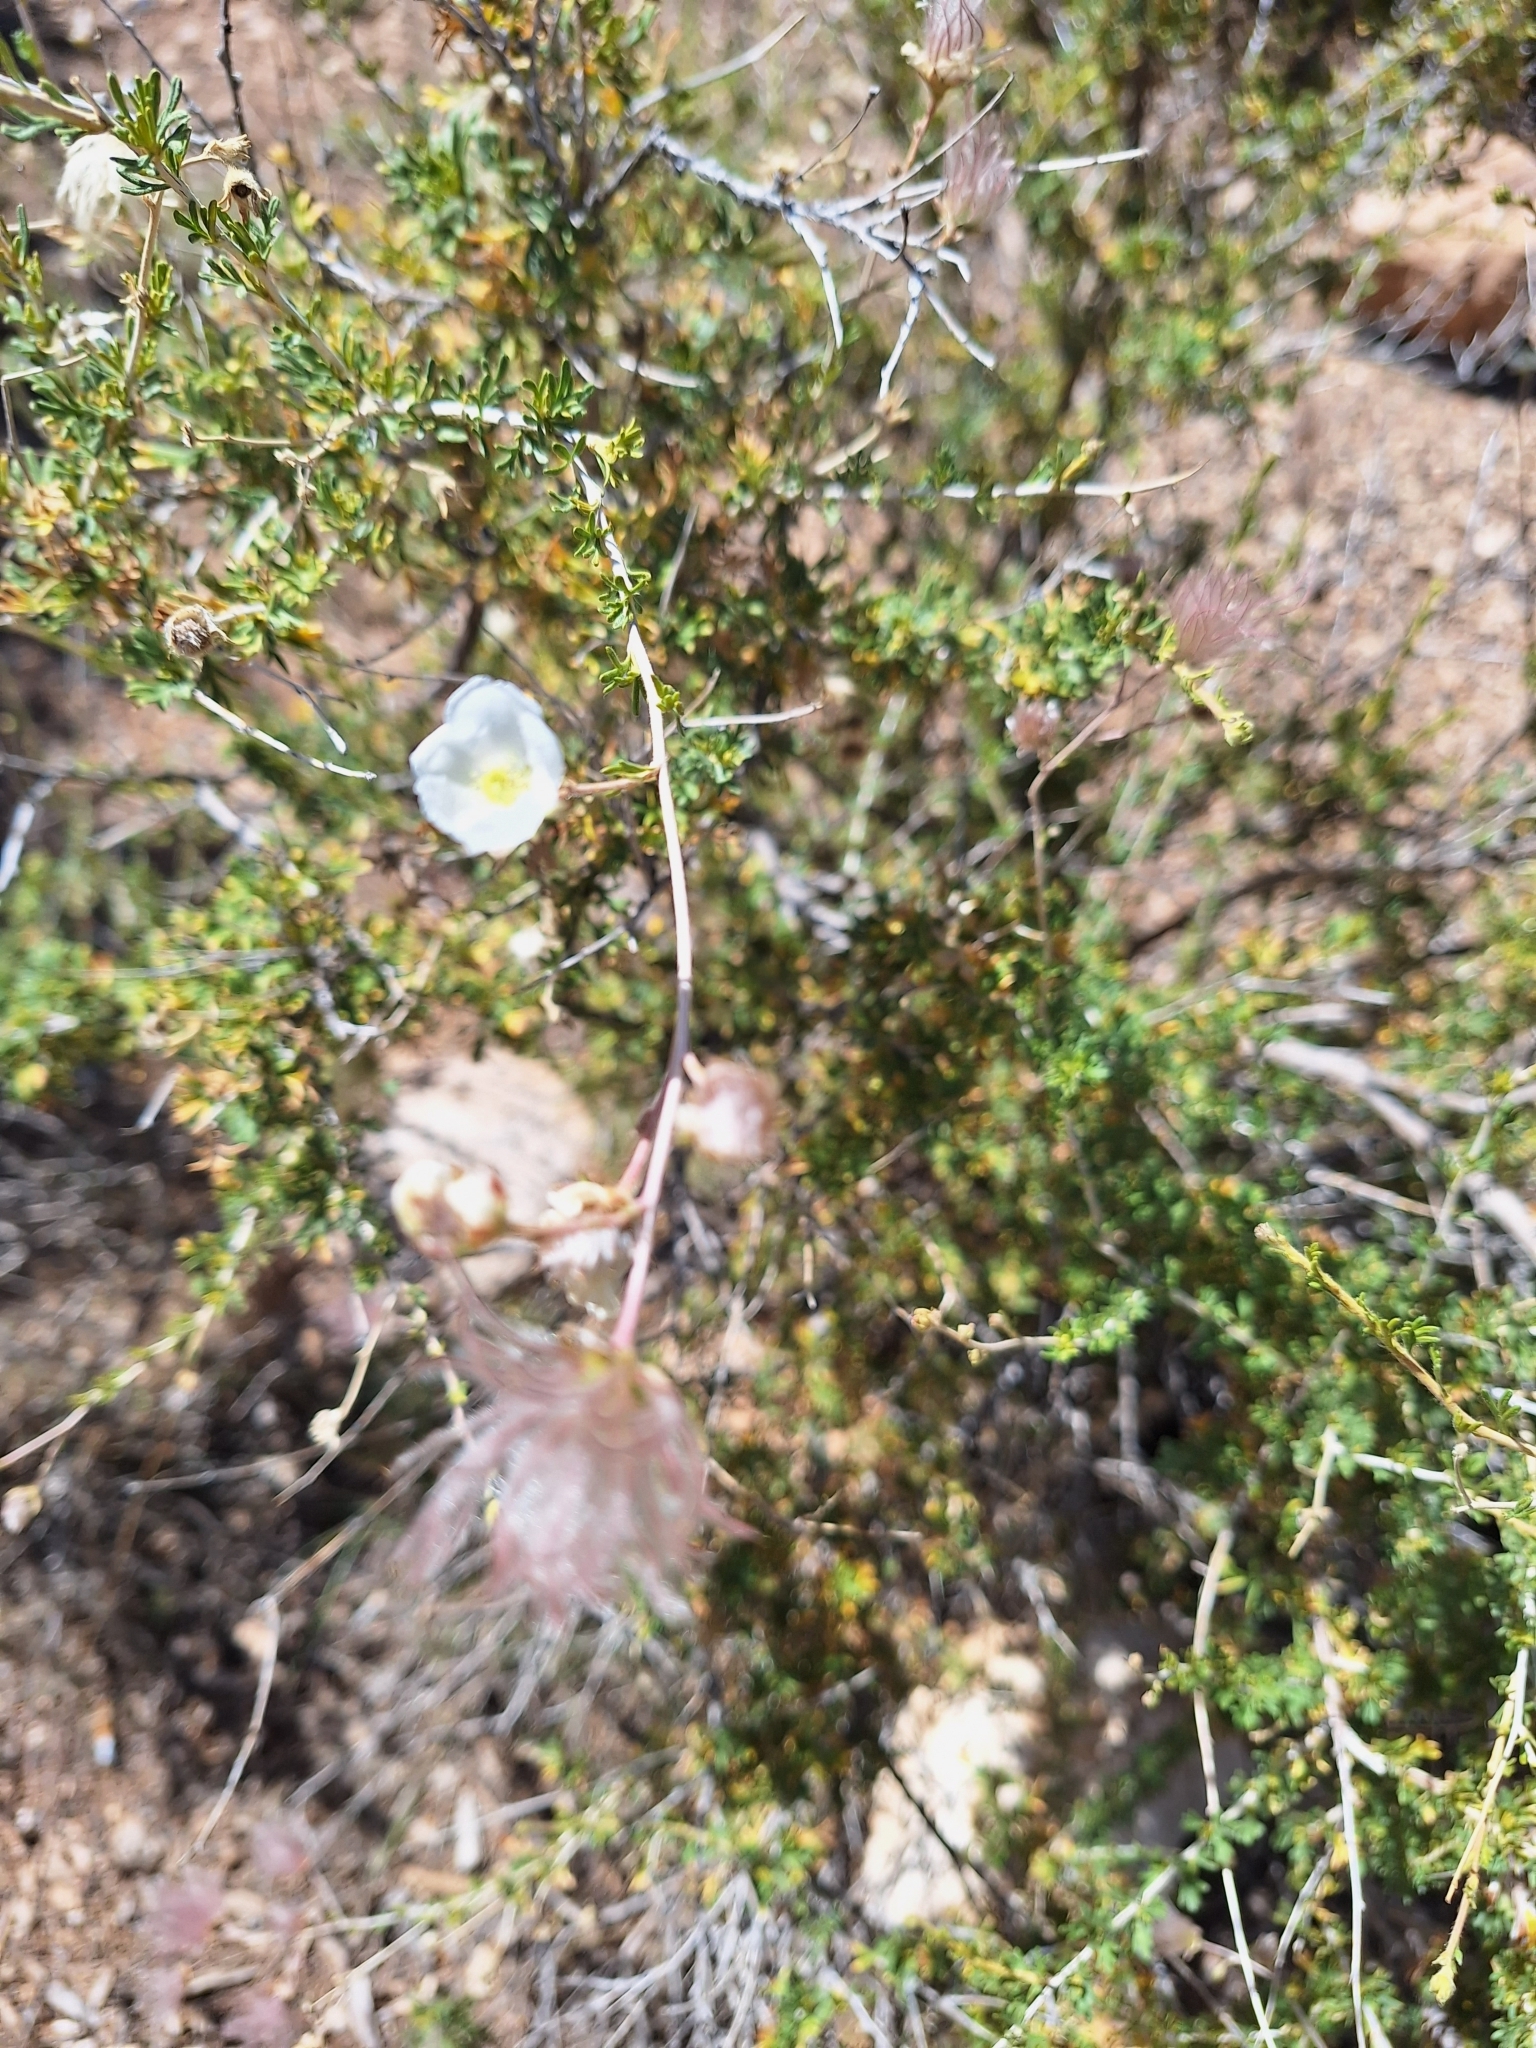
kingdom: Plantae
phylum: Tracheophyta
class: Magnoliopsida
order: Rosales
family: Rosaceae
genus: Fallugia
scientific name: Fallugia paradoxa
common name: Apache-plume
